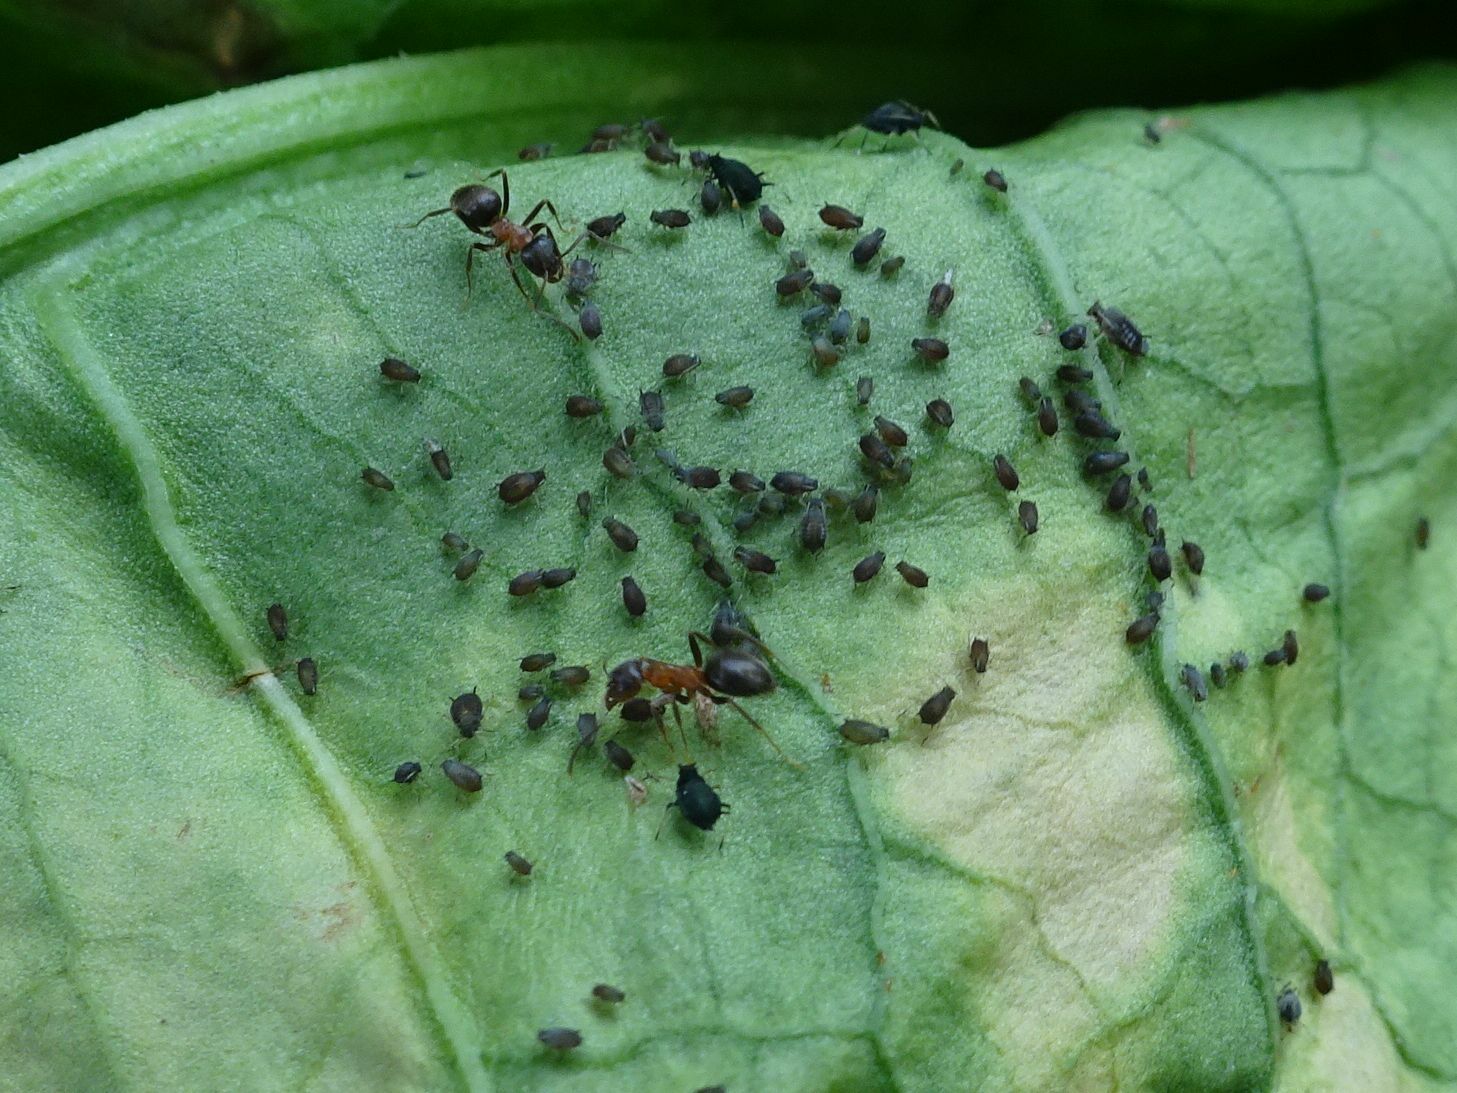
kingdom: Animalia
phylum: Arthropoda
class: Insecta
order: Hymenoptera
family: Formicidae
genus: Lasius
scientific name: Lasius emarginatus
